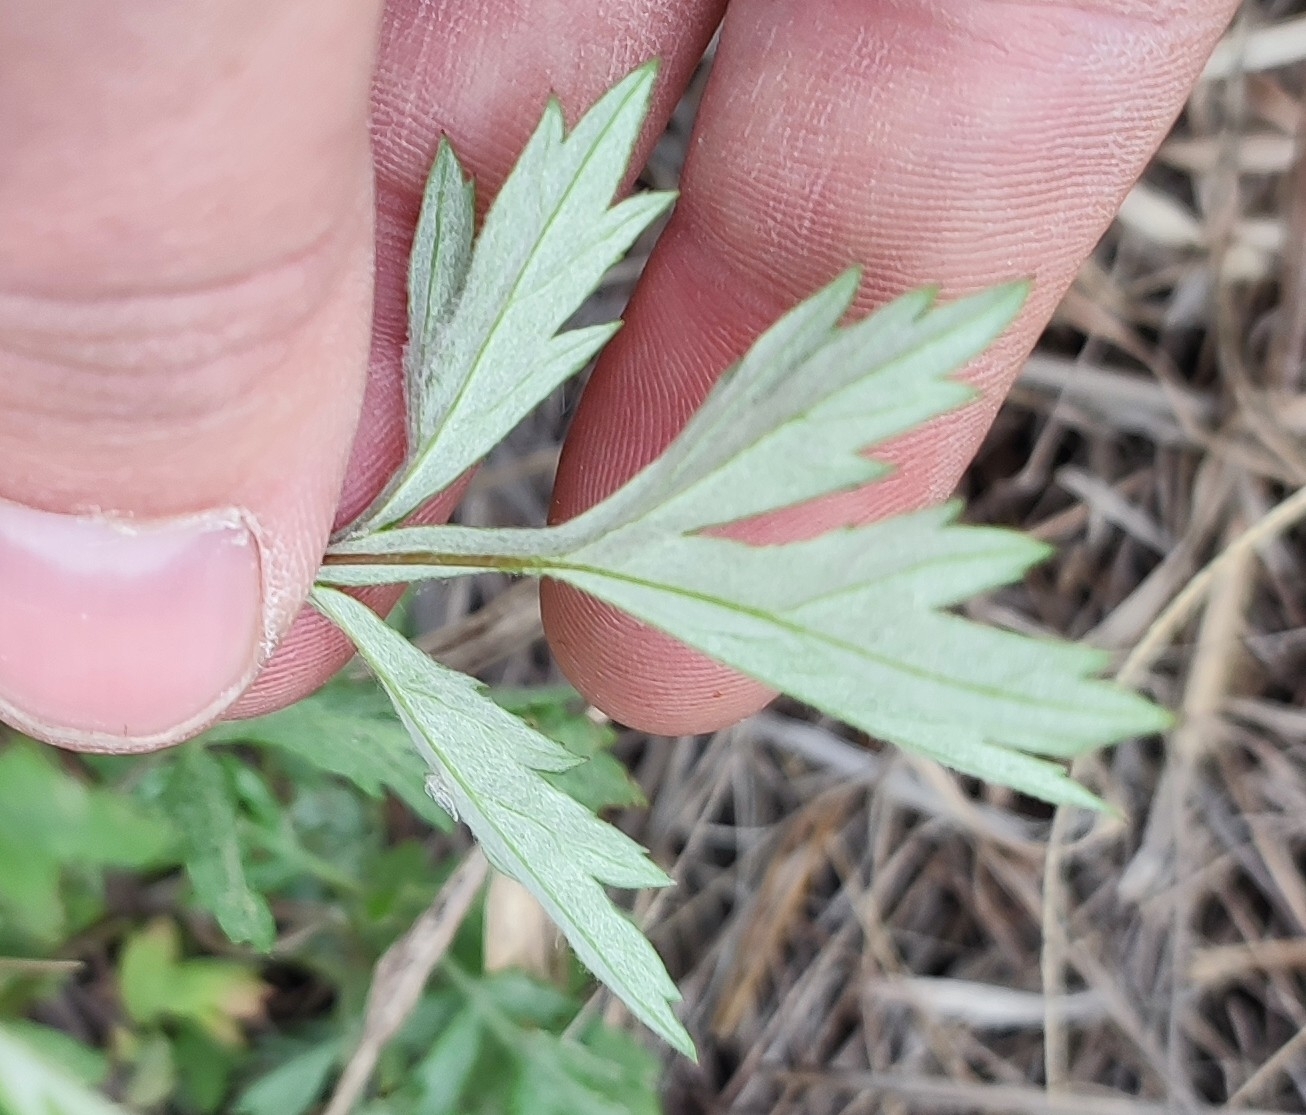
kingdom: Plantae
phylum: Tracheophyta
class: Magnoliopsida
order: Asterales
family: Asteraceae
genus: Artemisia
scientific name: Artemisia vulgaris
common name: Mugwort
